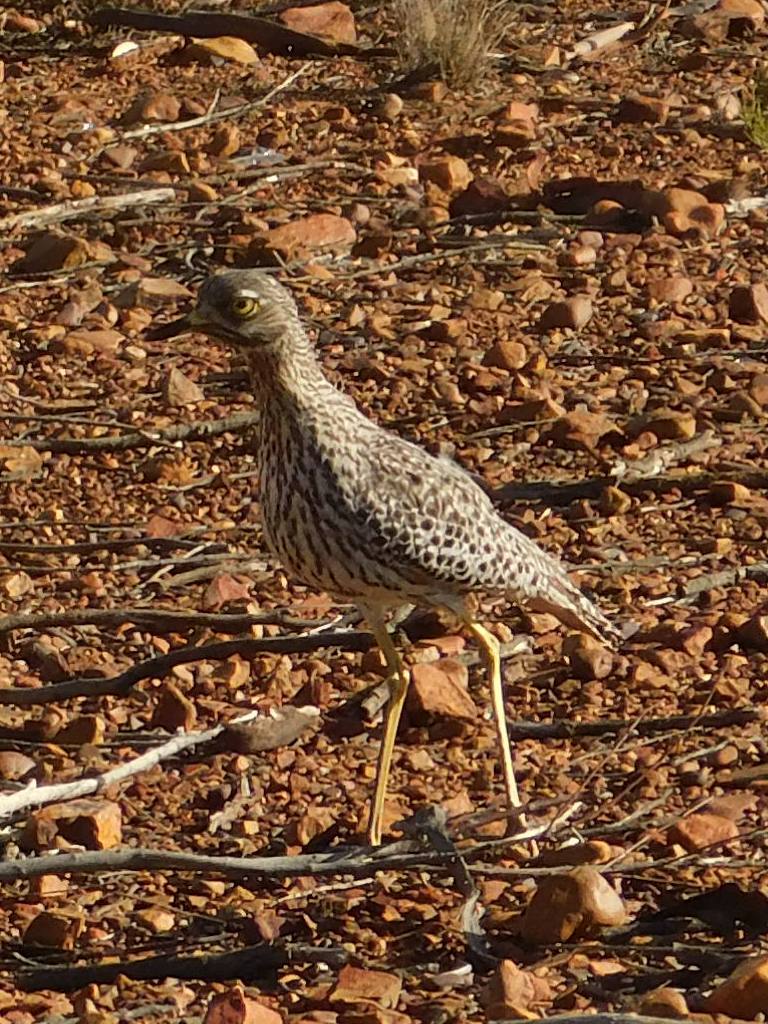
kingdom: Animalia
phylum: Chordata
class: Aves
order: Charadriiformes
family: Burhinidae
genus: Burhinus
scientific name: Burhinus capensis
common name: Spotted thick-knee
